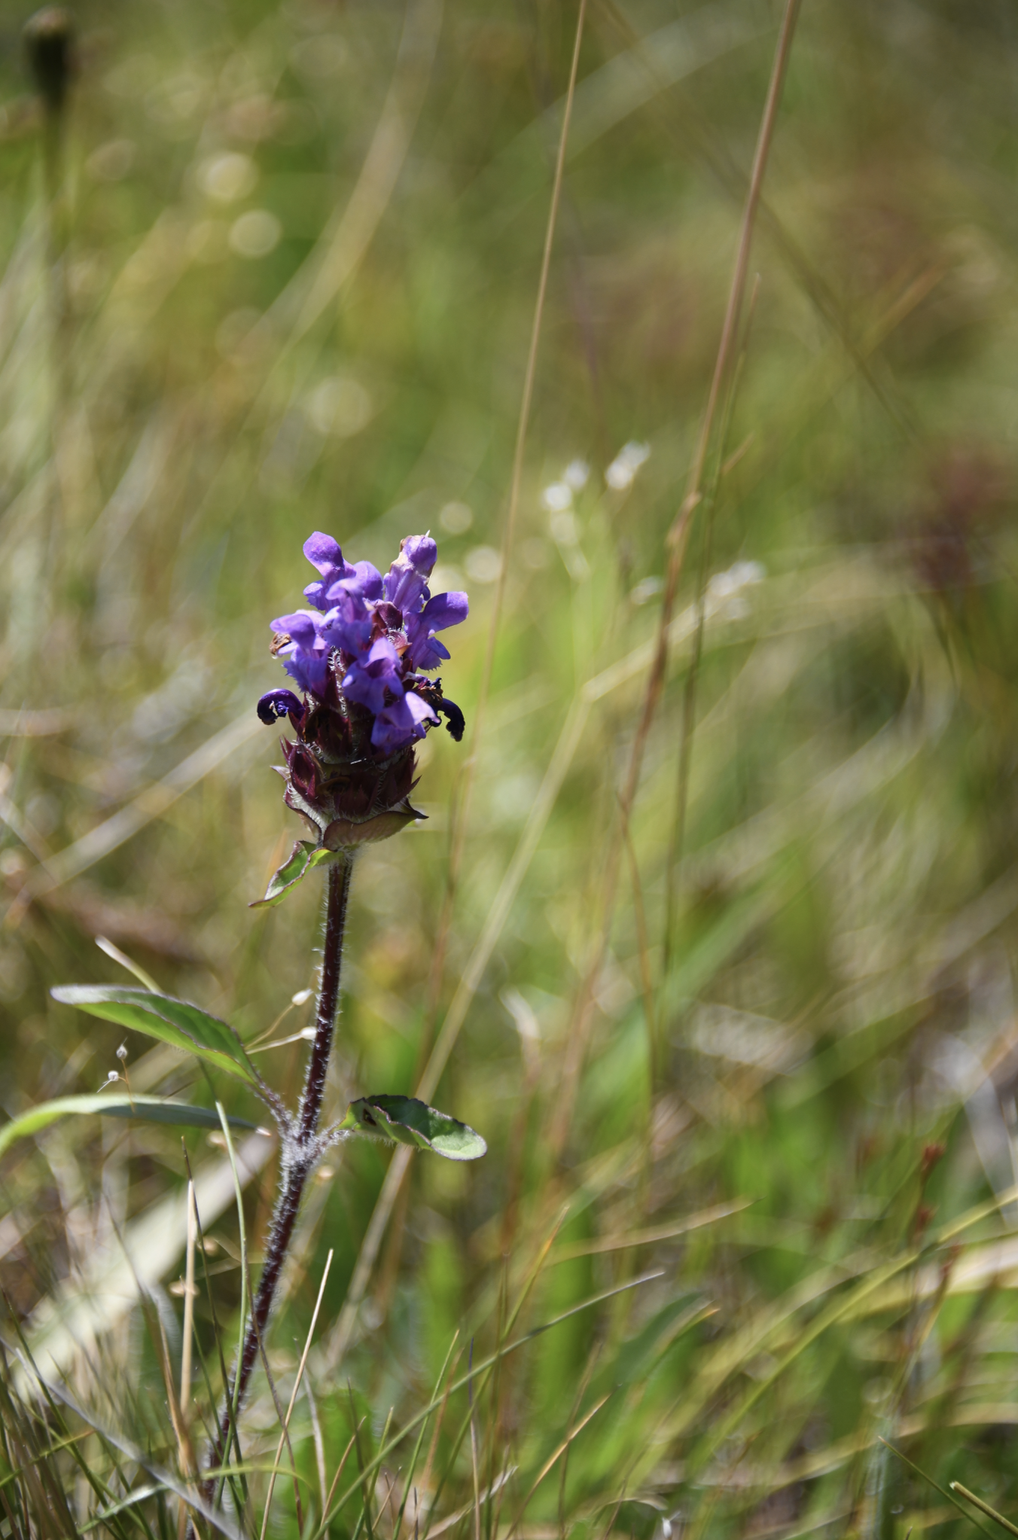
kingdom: Plantae
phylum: Tracheophyta
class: Magnoliopsida
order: Lamiales
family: Lamiaceae
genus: Prunella
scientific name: Prunella vulgaris
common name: Heal-all
